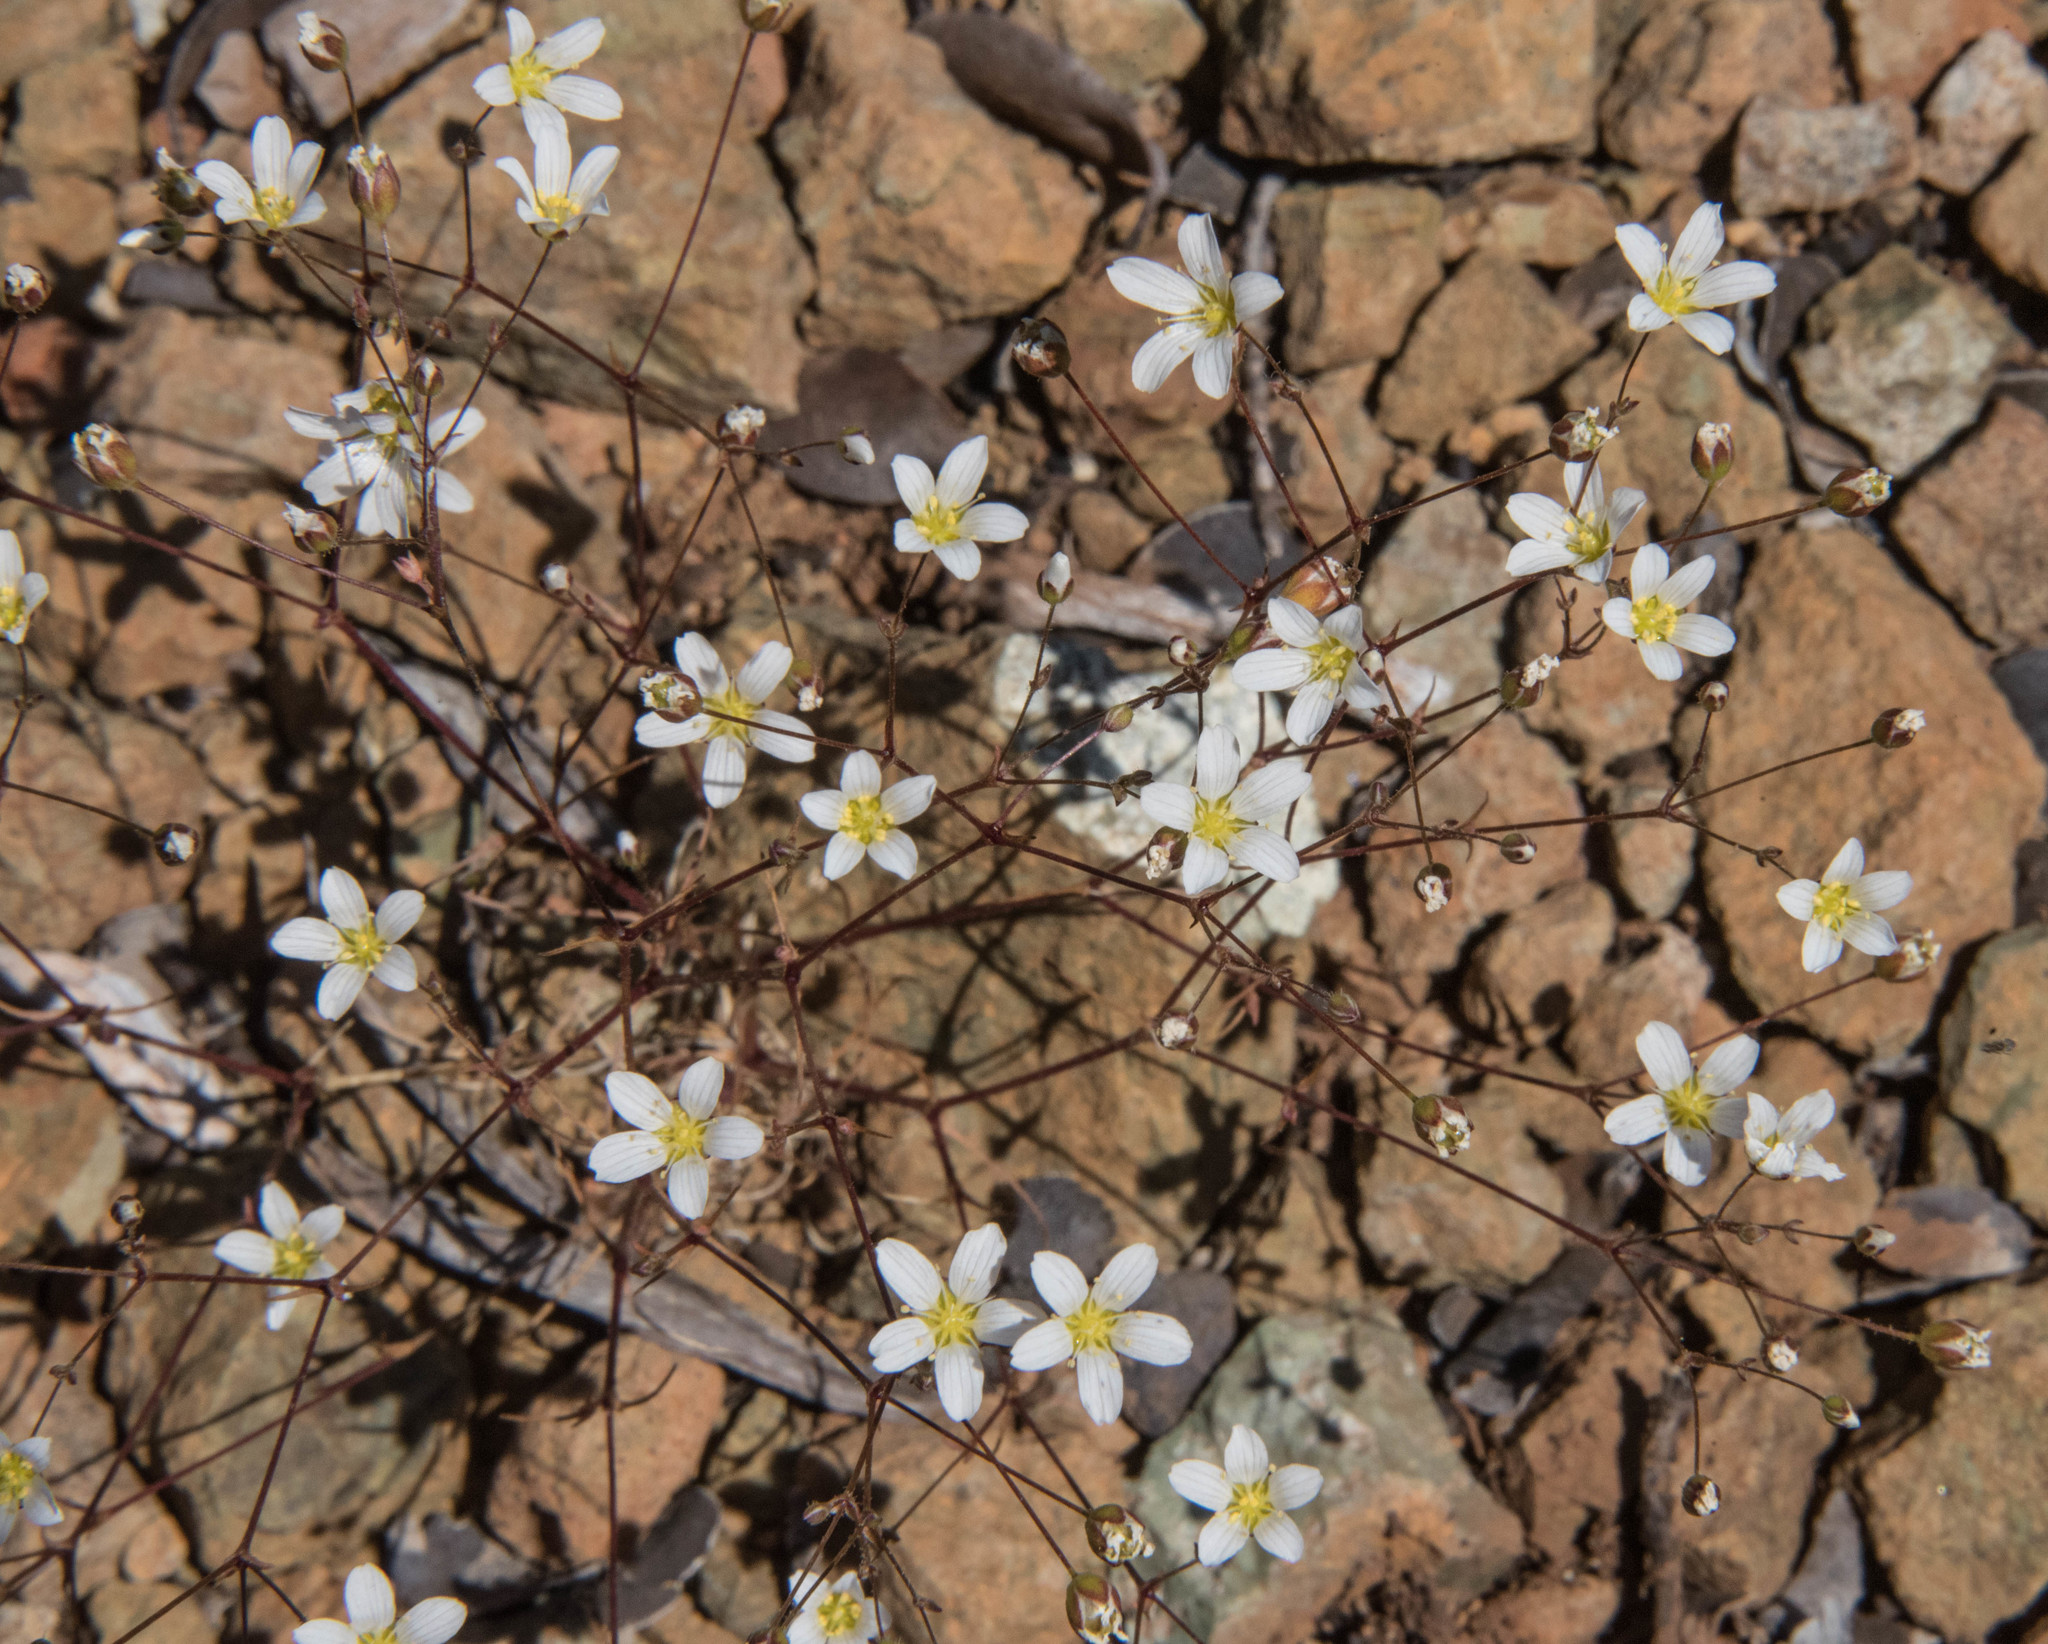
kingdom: Plantae
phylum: Tracheophyta
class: Magnoliopsida
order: Caryophyllales
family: Caryophyllaceae
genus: Sabulina
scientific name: Sabulina douglasii
